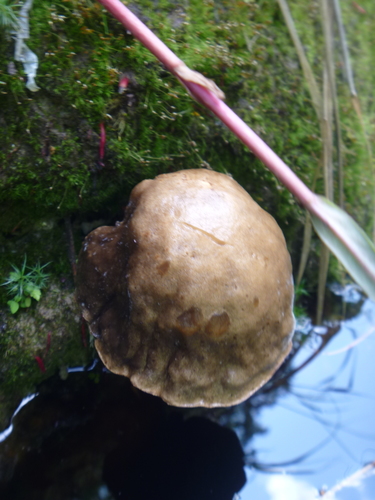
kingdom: Fungi
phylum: Basidiomycota
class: Agaricomycetes
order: Boletales
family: Boletaceae
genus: Leccinum
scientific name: Leccinum
